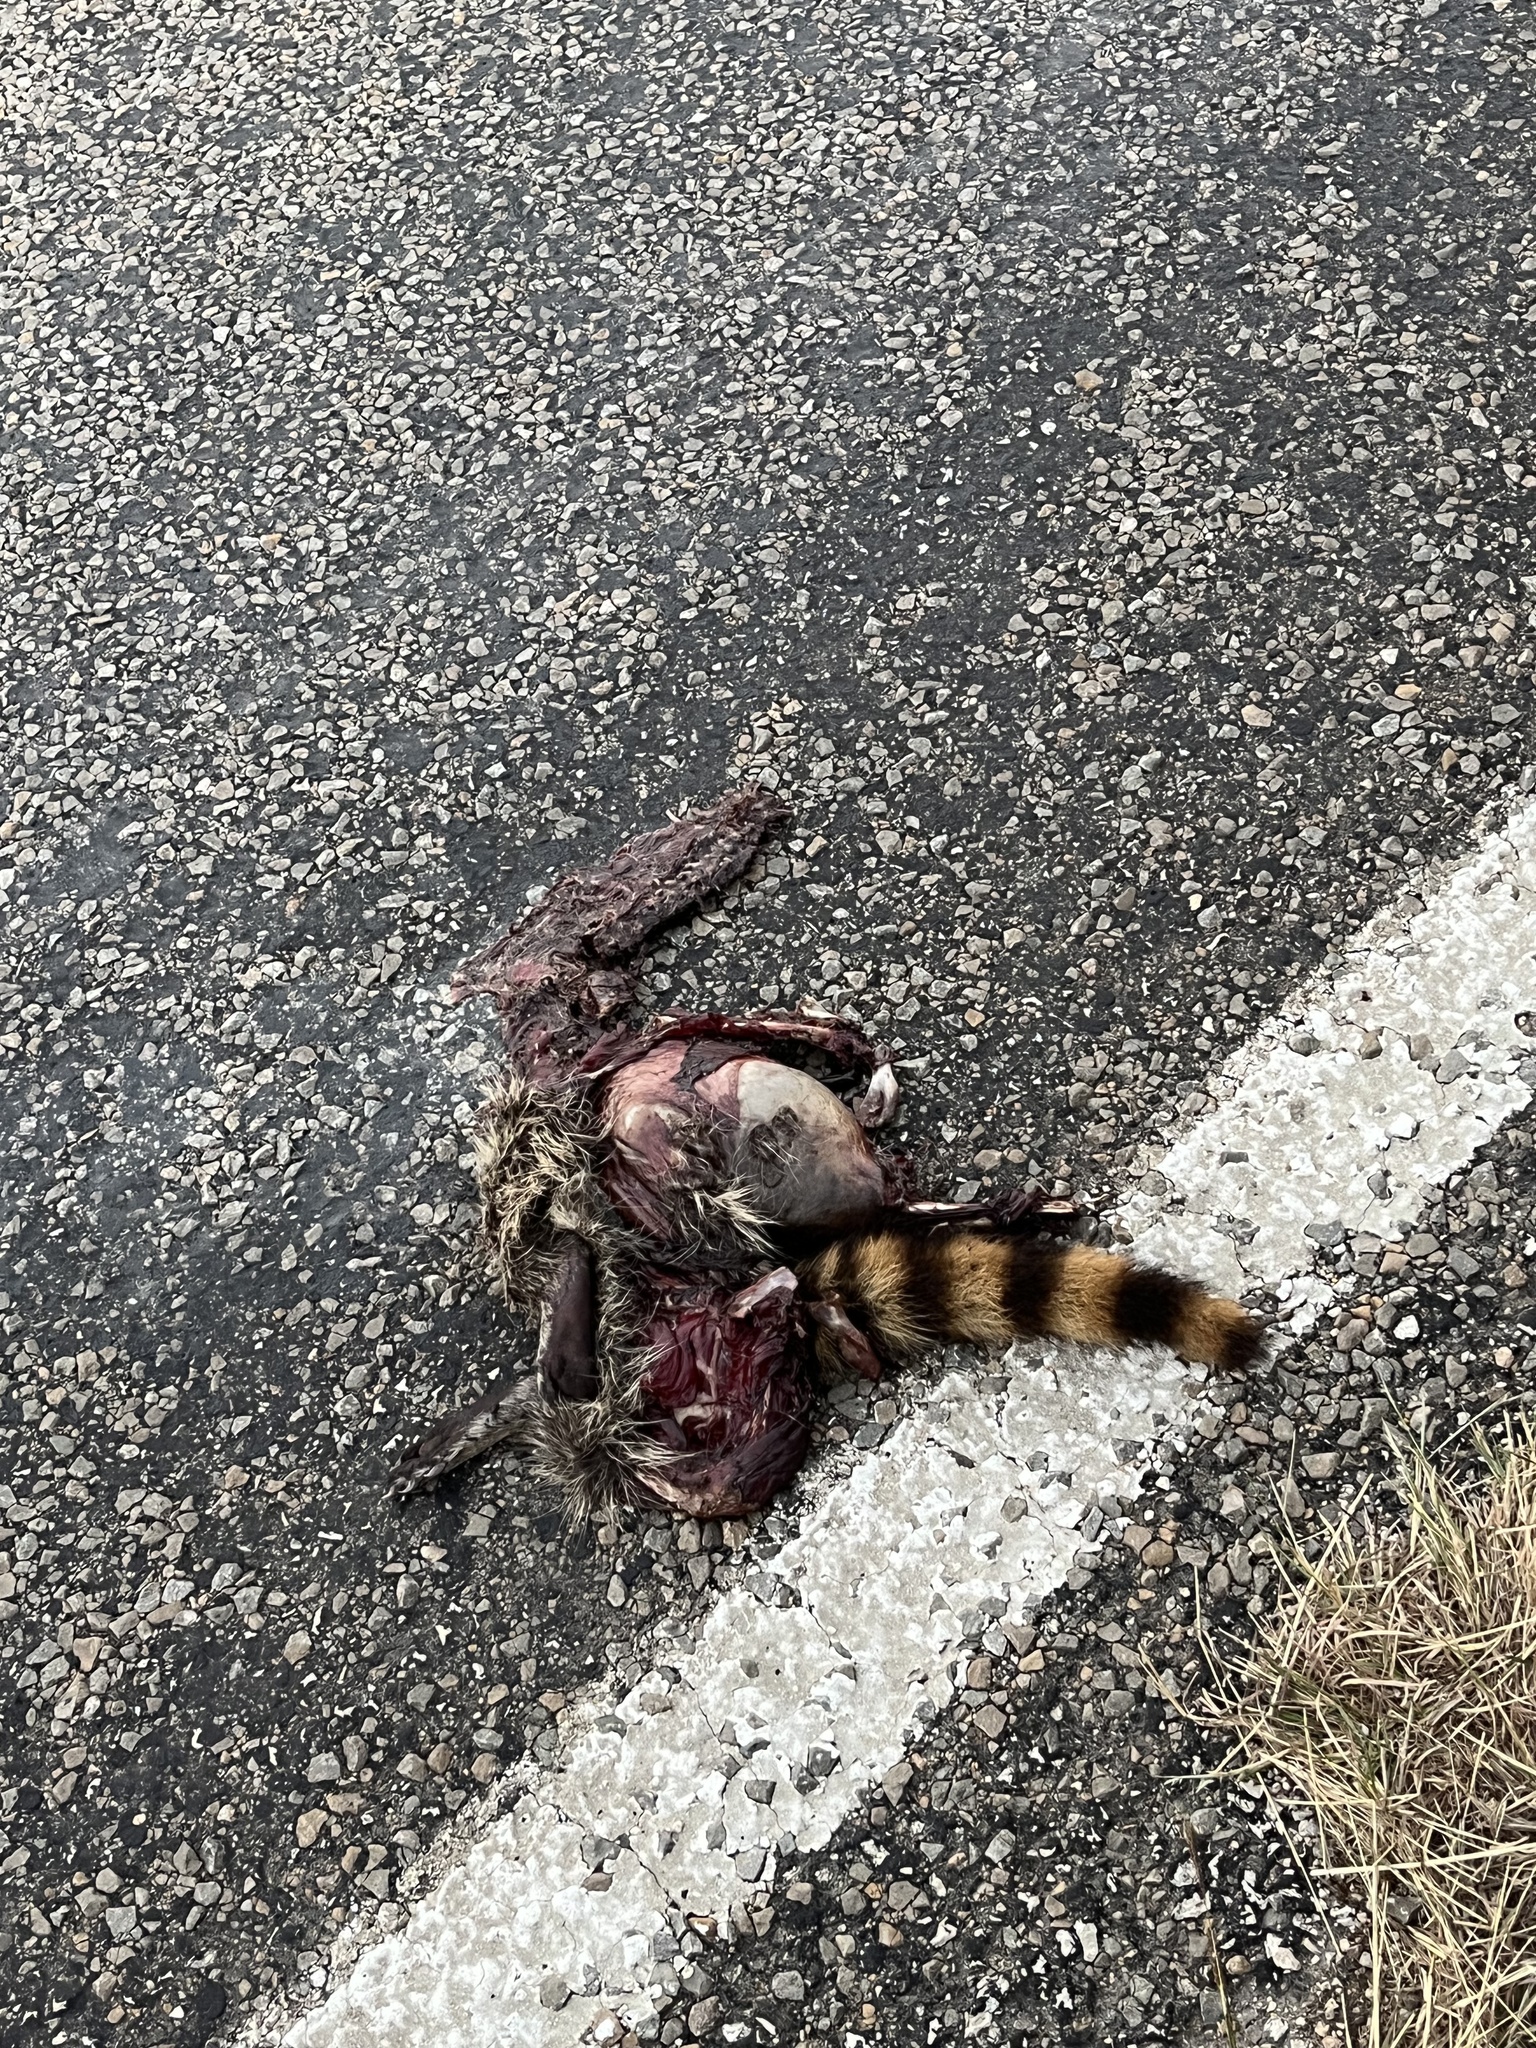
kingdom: Animalia
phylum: Chordata
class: Mammalia
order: Carnivora
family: Procyonidae
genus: Procyon
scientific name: Procyon lotor
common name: Raccoon
